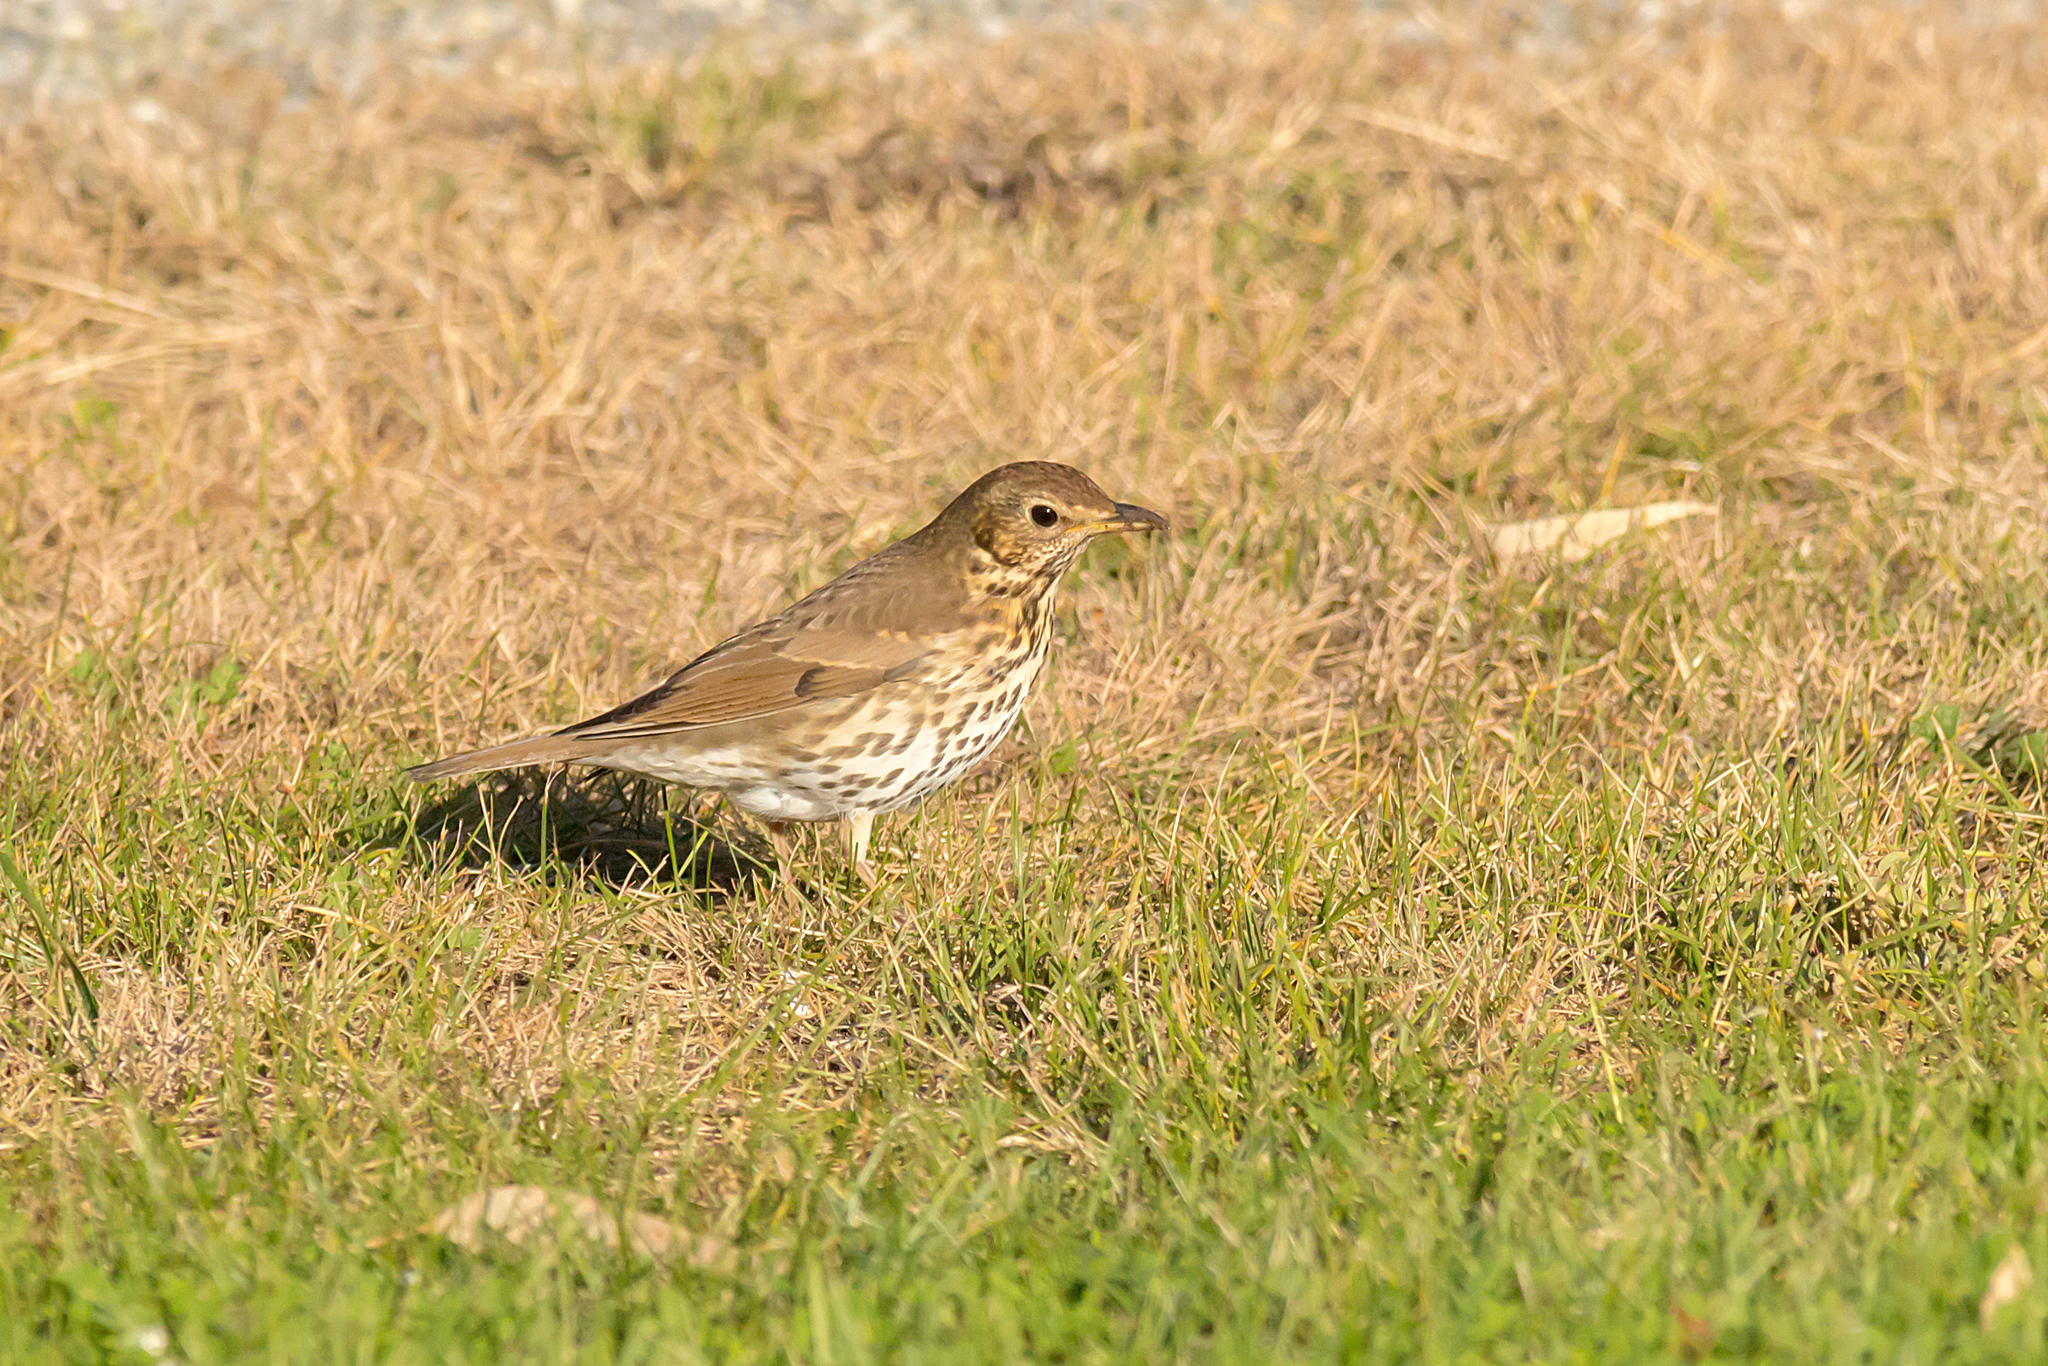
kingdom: Animalia
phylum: Chordata
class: Aves
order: Passeriformes
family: Turdidae
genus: Turdus
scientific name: Turdus philomelos
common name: Song thrush
